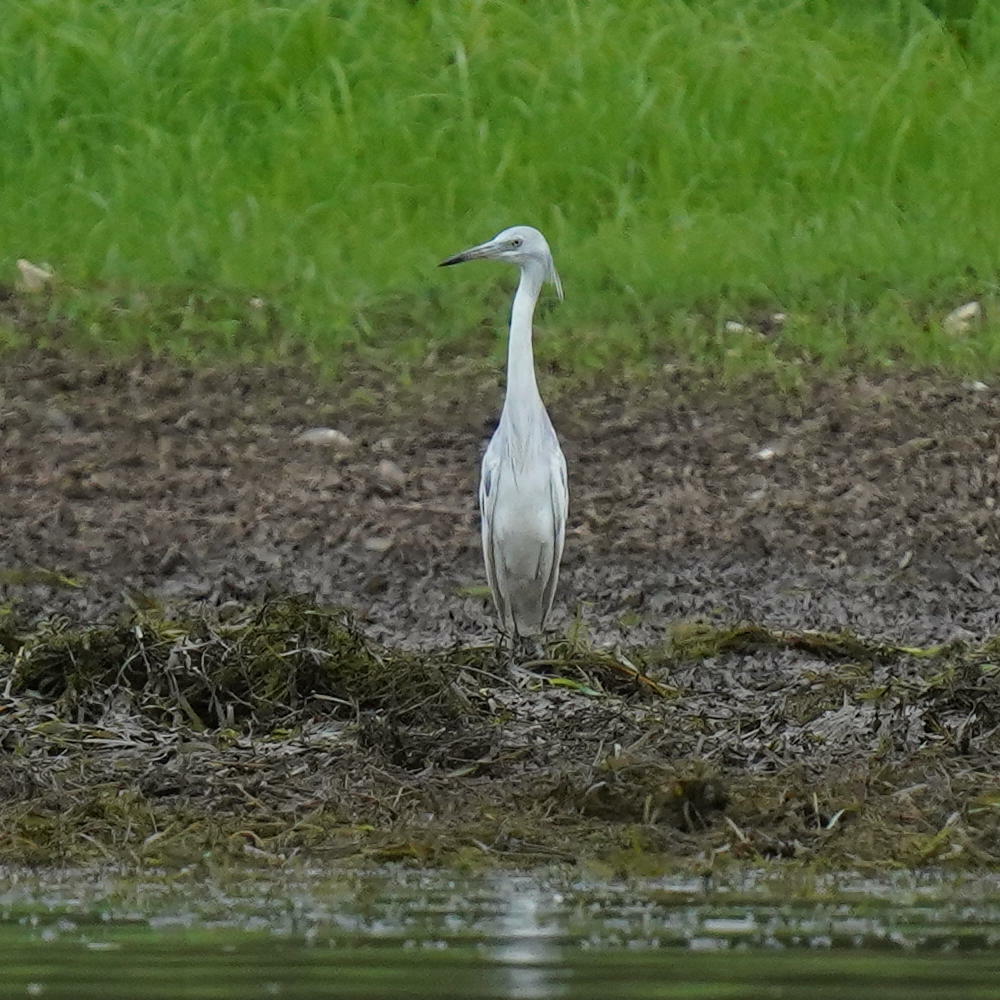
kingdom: Animalia
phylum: Chordata
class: Aves
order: Pelecaniformes
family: Ardeidae
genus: Egretta
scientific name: Egretta caerulea
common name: Little blue heron
